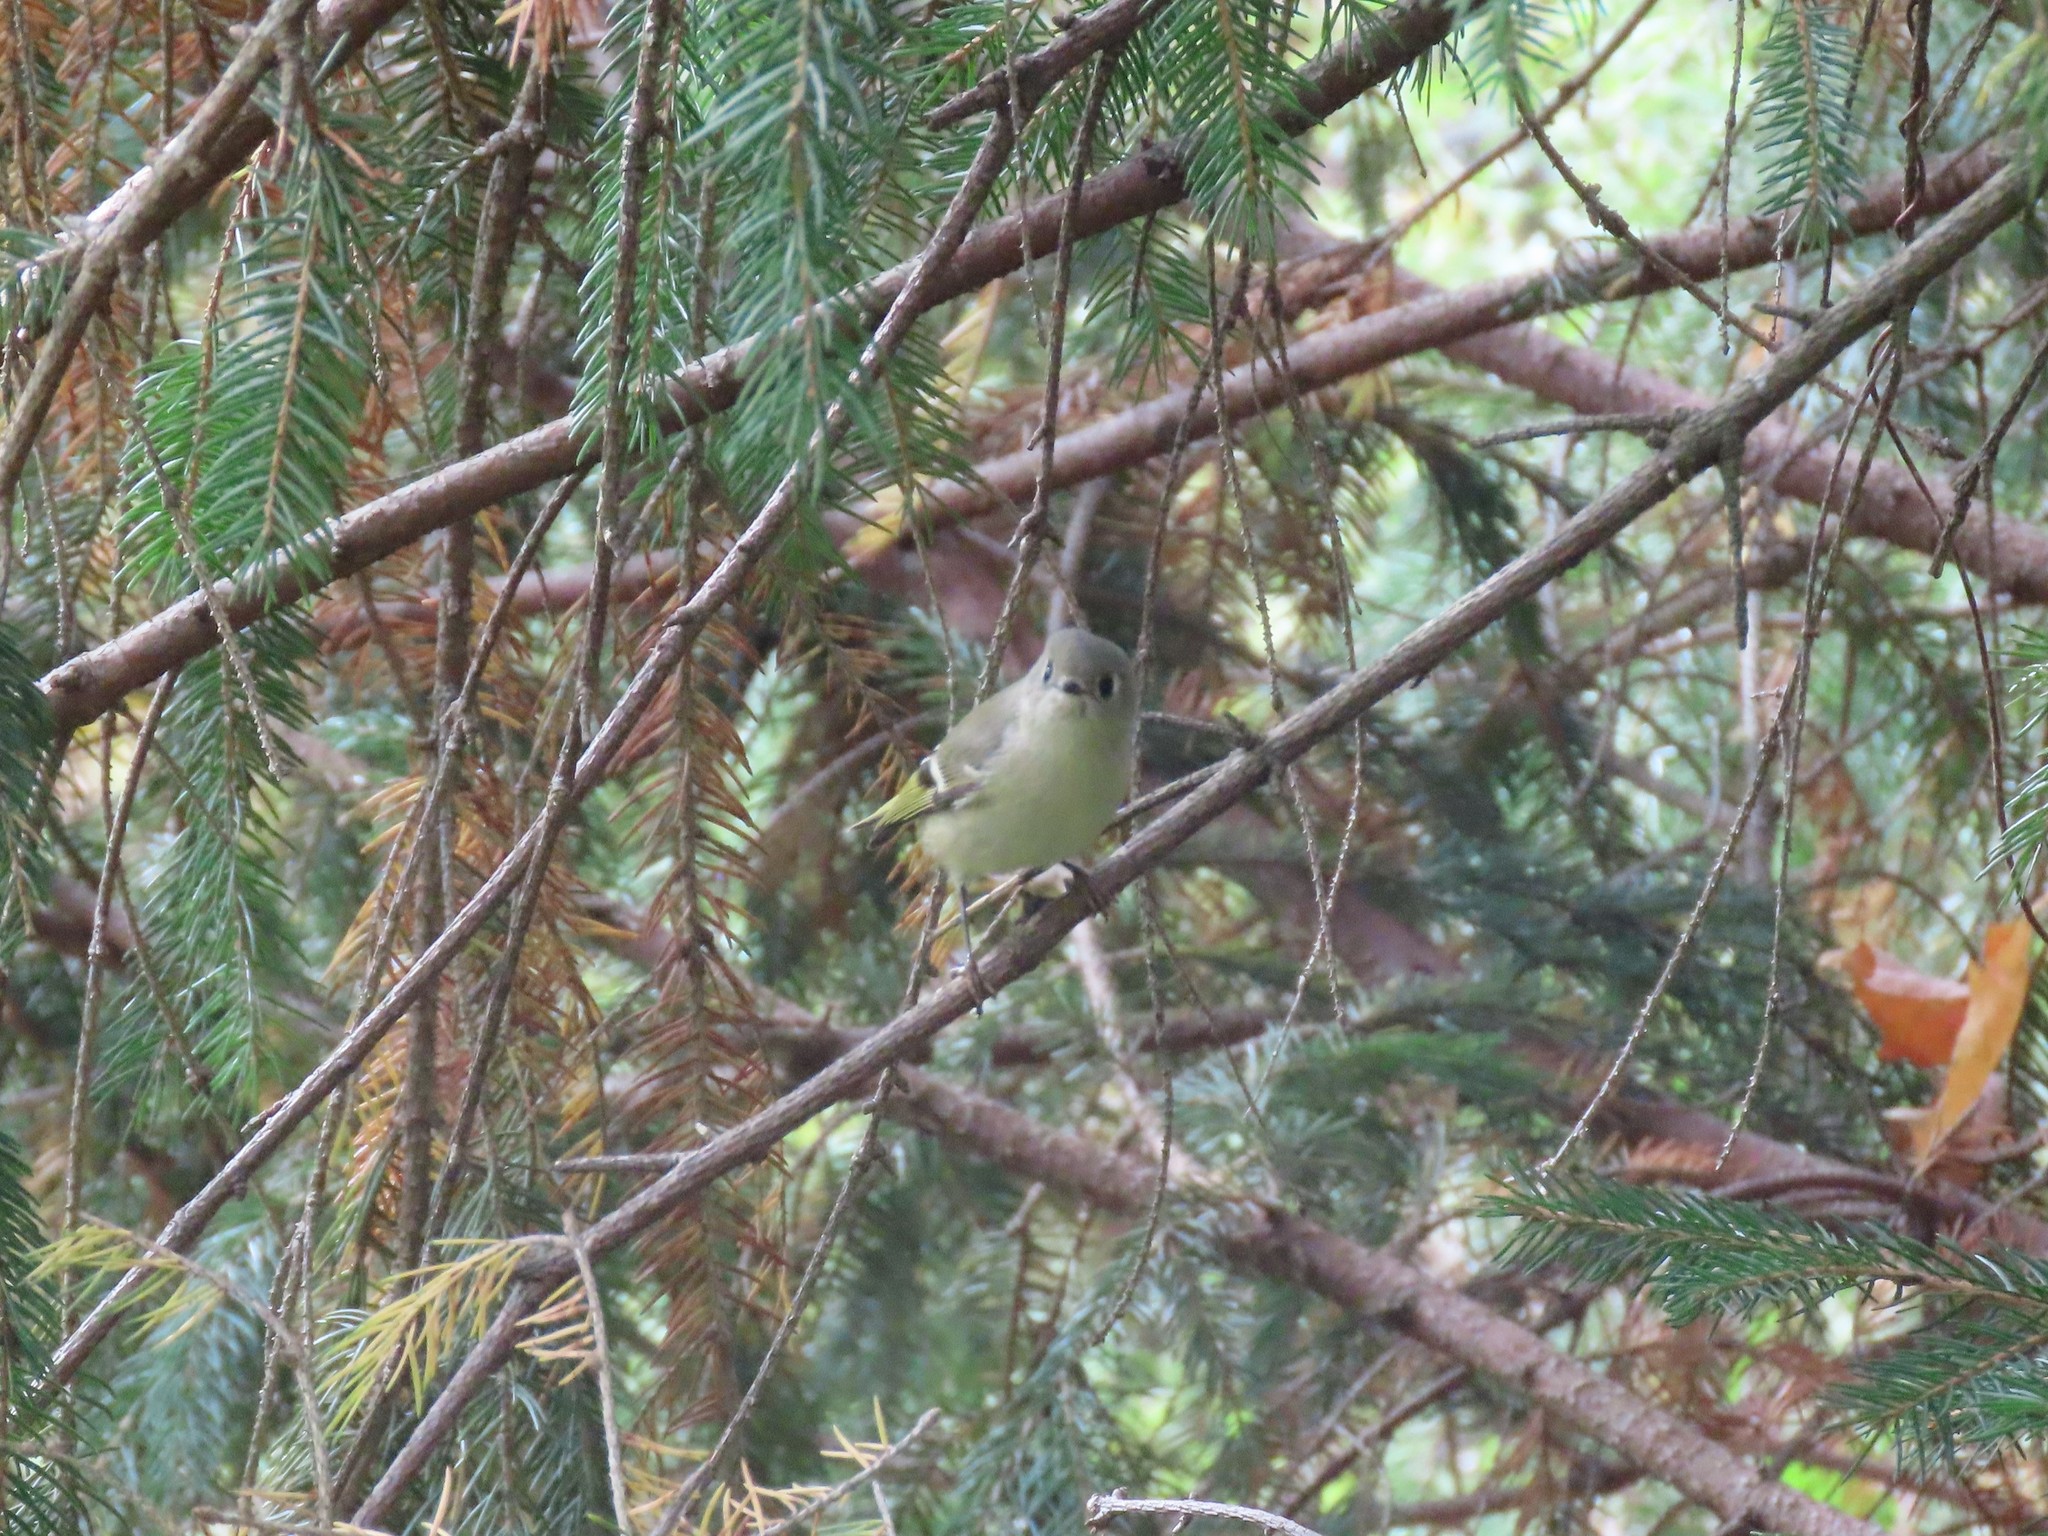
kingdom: Animalia
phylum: Chordata
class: Aves
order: Passeriformes
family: Regulidae
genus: Regulus
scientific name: Regulus calendula
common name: Ruby-crowned kinglet
